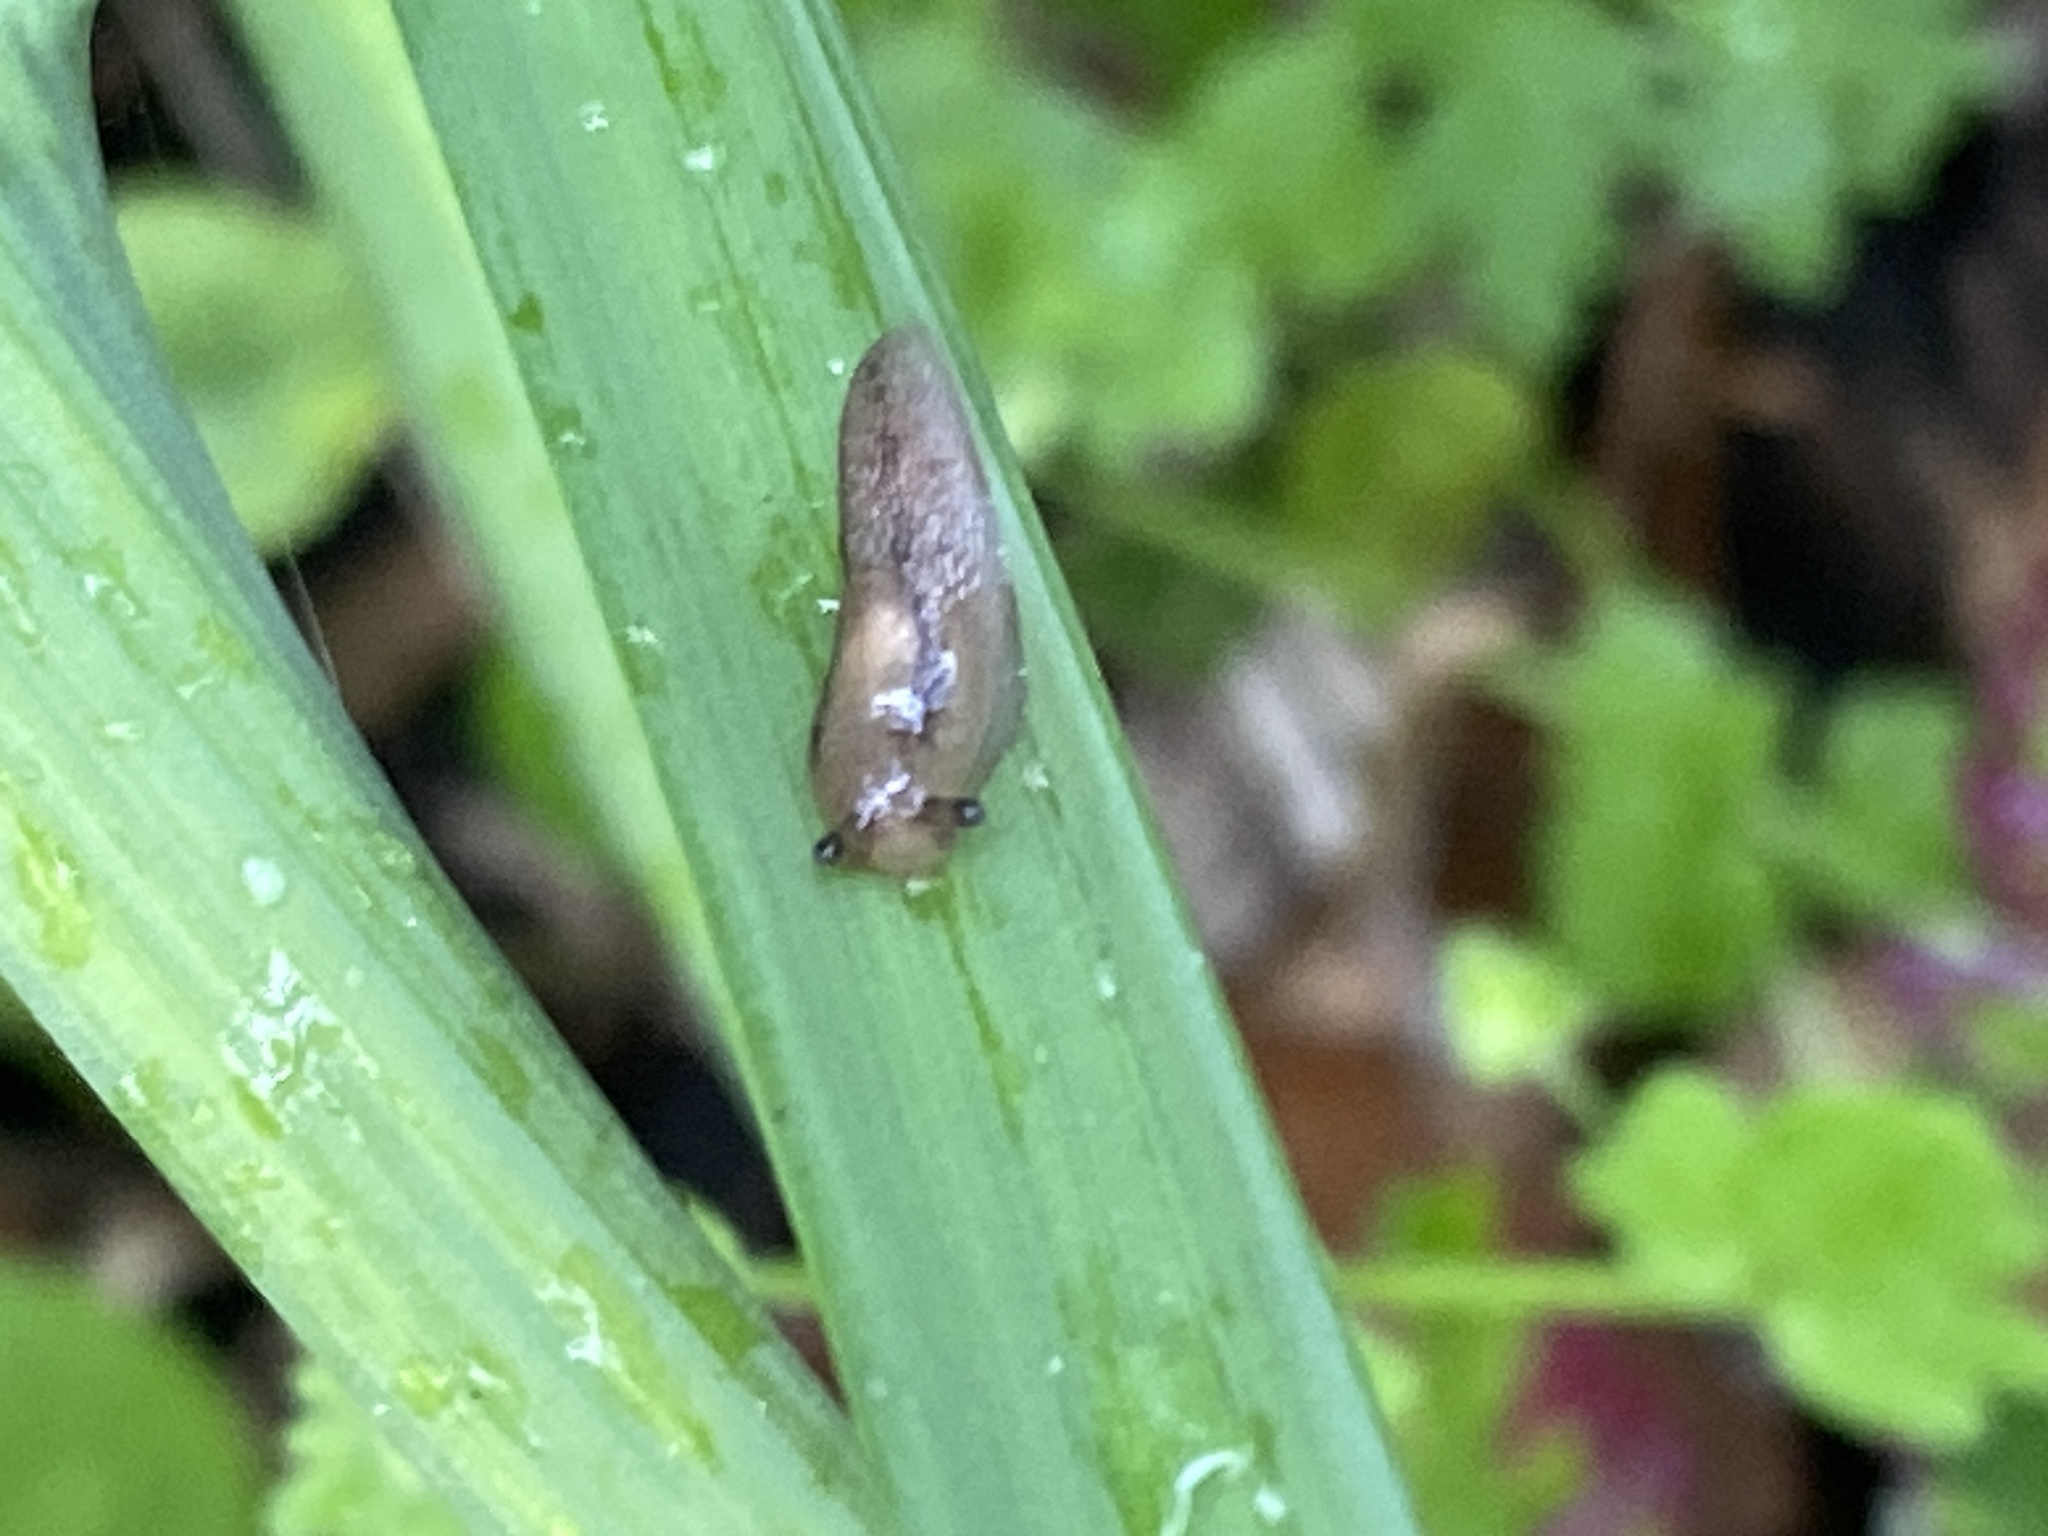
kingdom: Animalia
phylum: Mollusca
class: Gastropoda
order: Stylommatophora
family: Agriolimacidae
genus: Deroceras
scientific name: Deroceras invadens
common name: Caruana's slug
